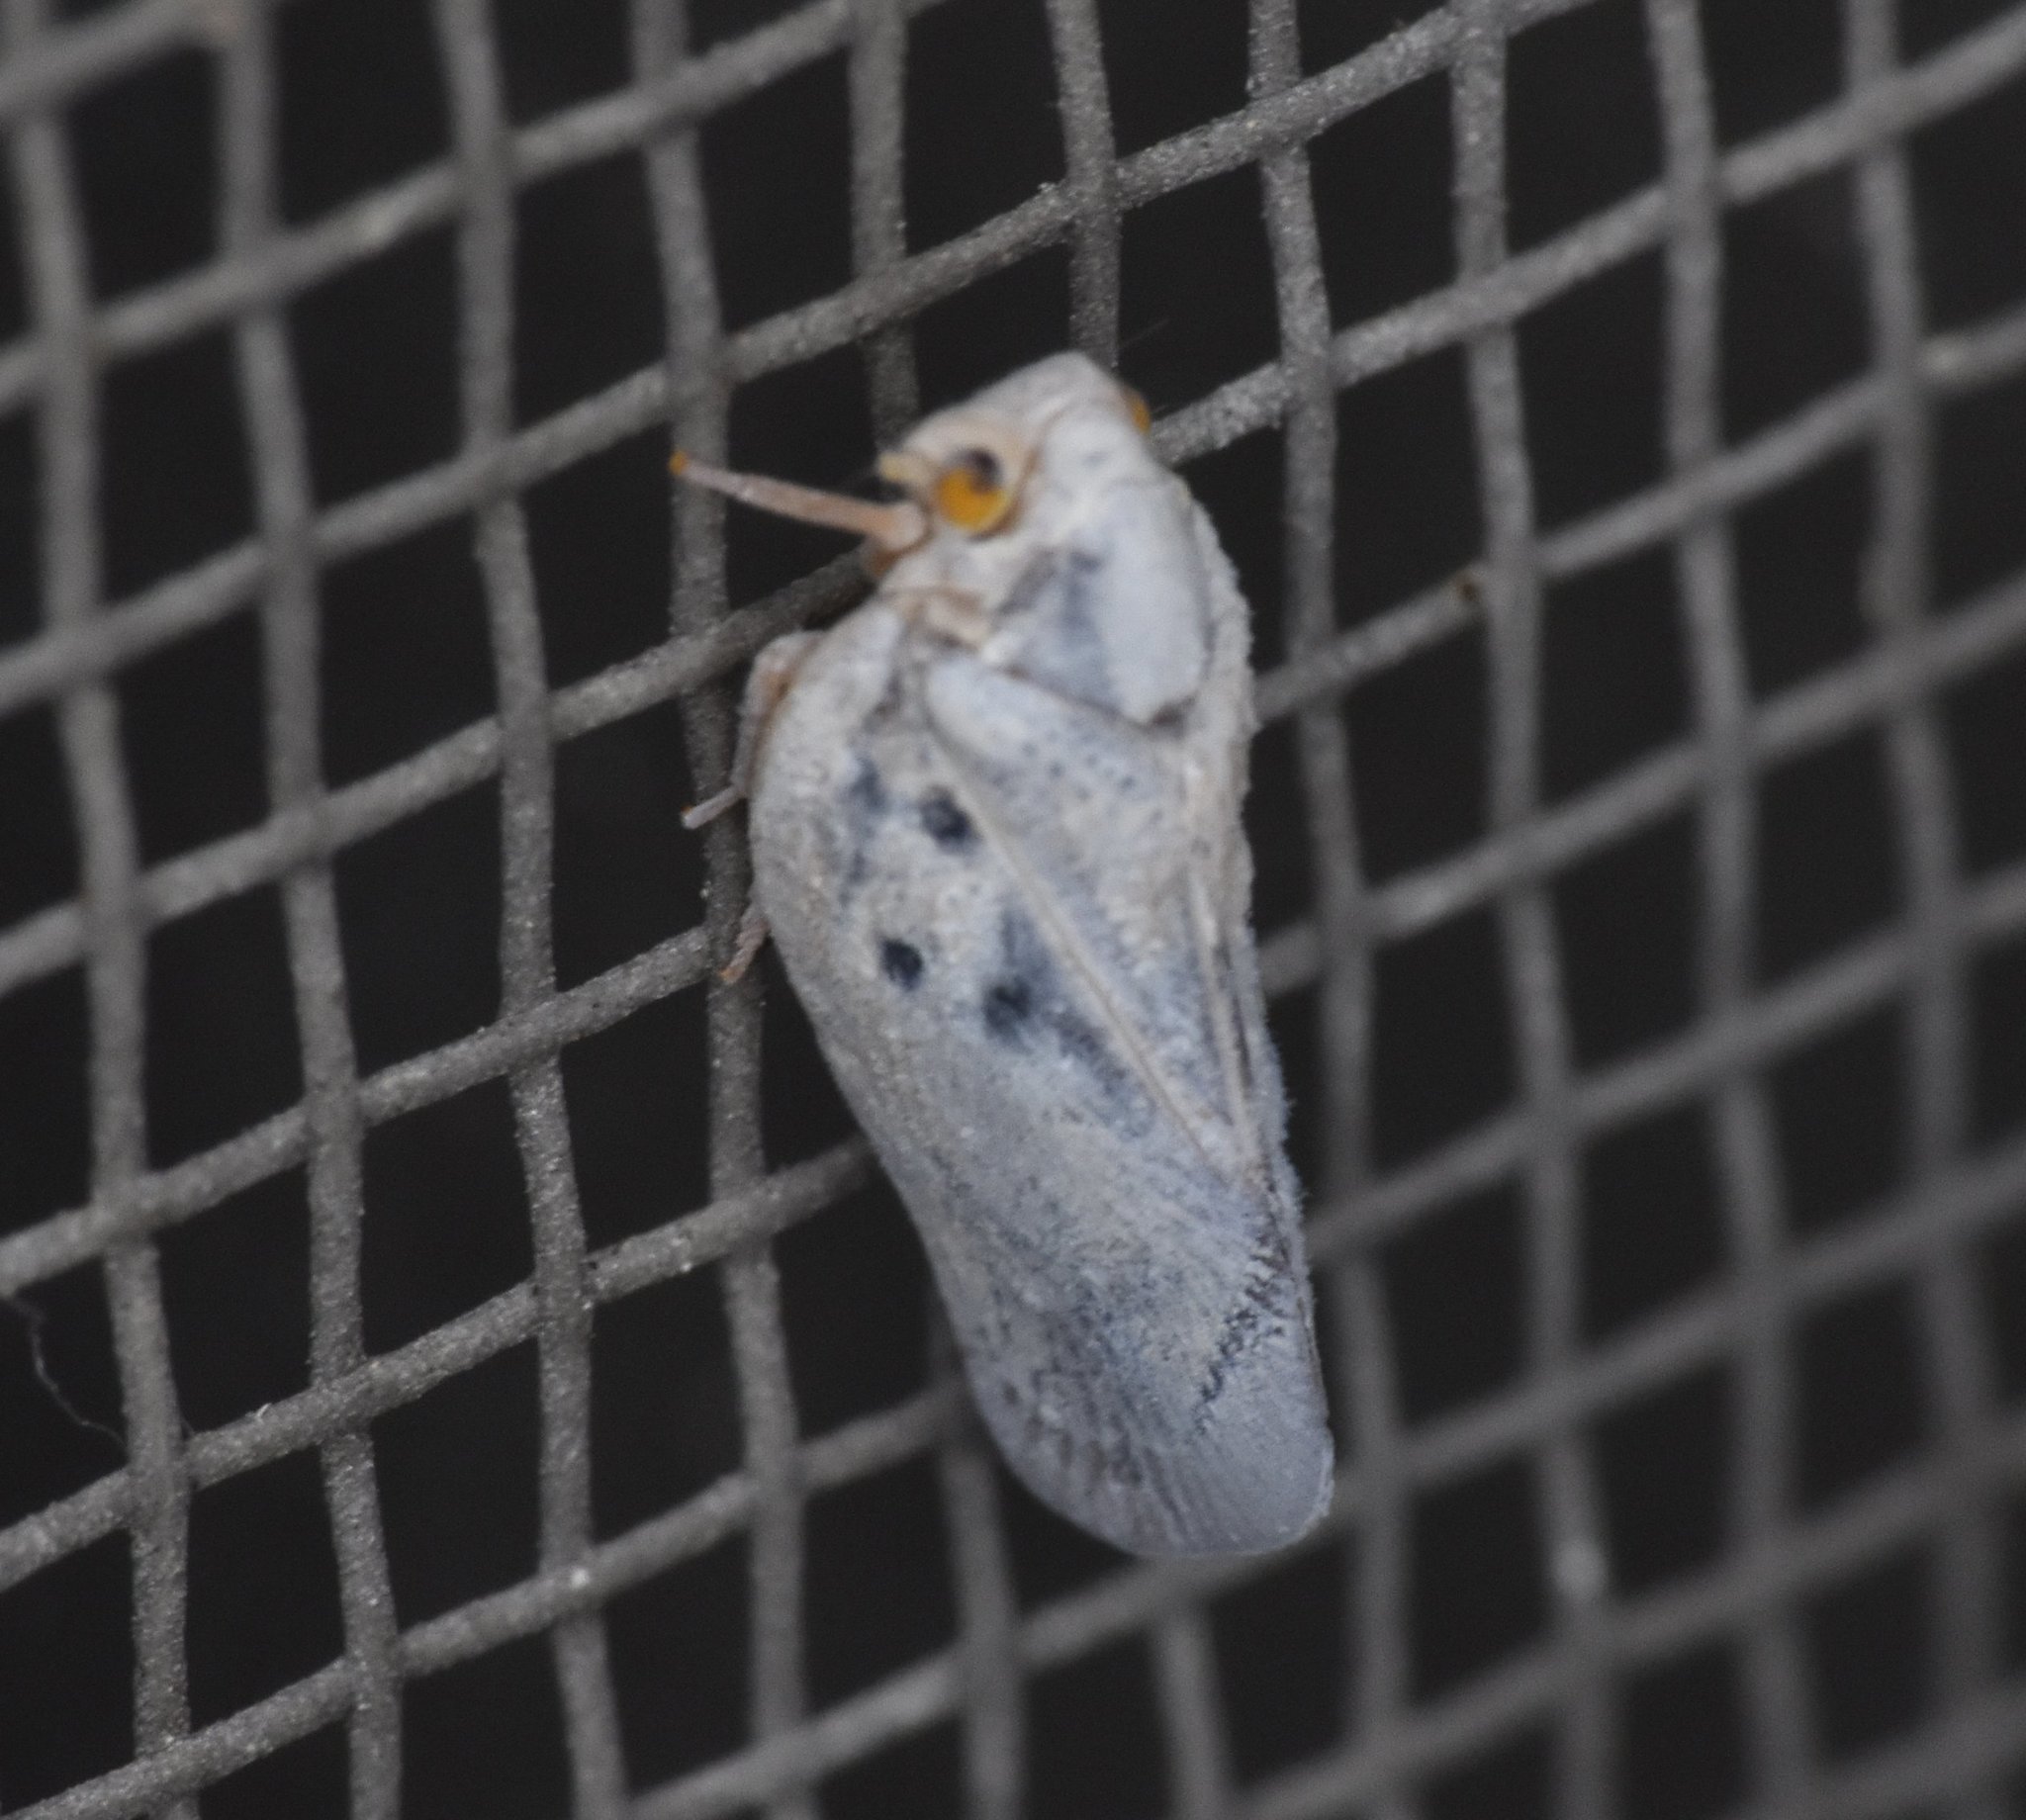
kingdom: Animalia
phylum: Arthropoda
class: Insecta
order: Hemiptera
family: Flatidae
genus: Metcalfa
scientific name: Metcalfa pruinosa
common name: Citrus flatid planthopper
